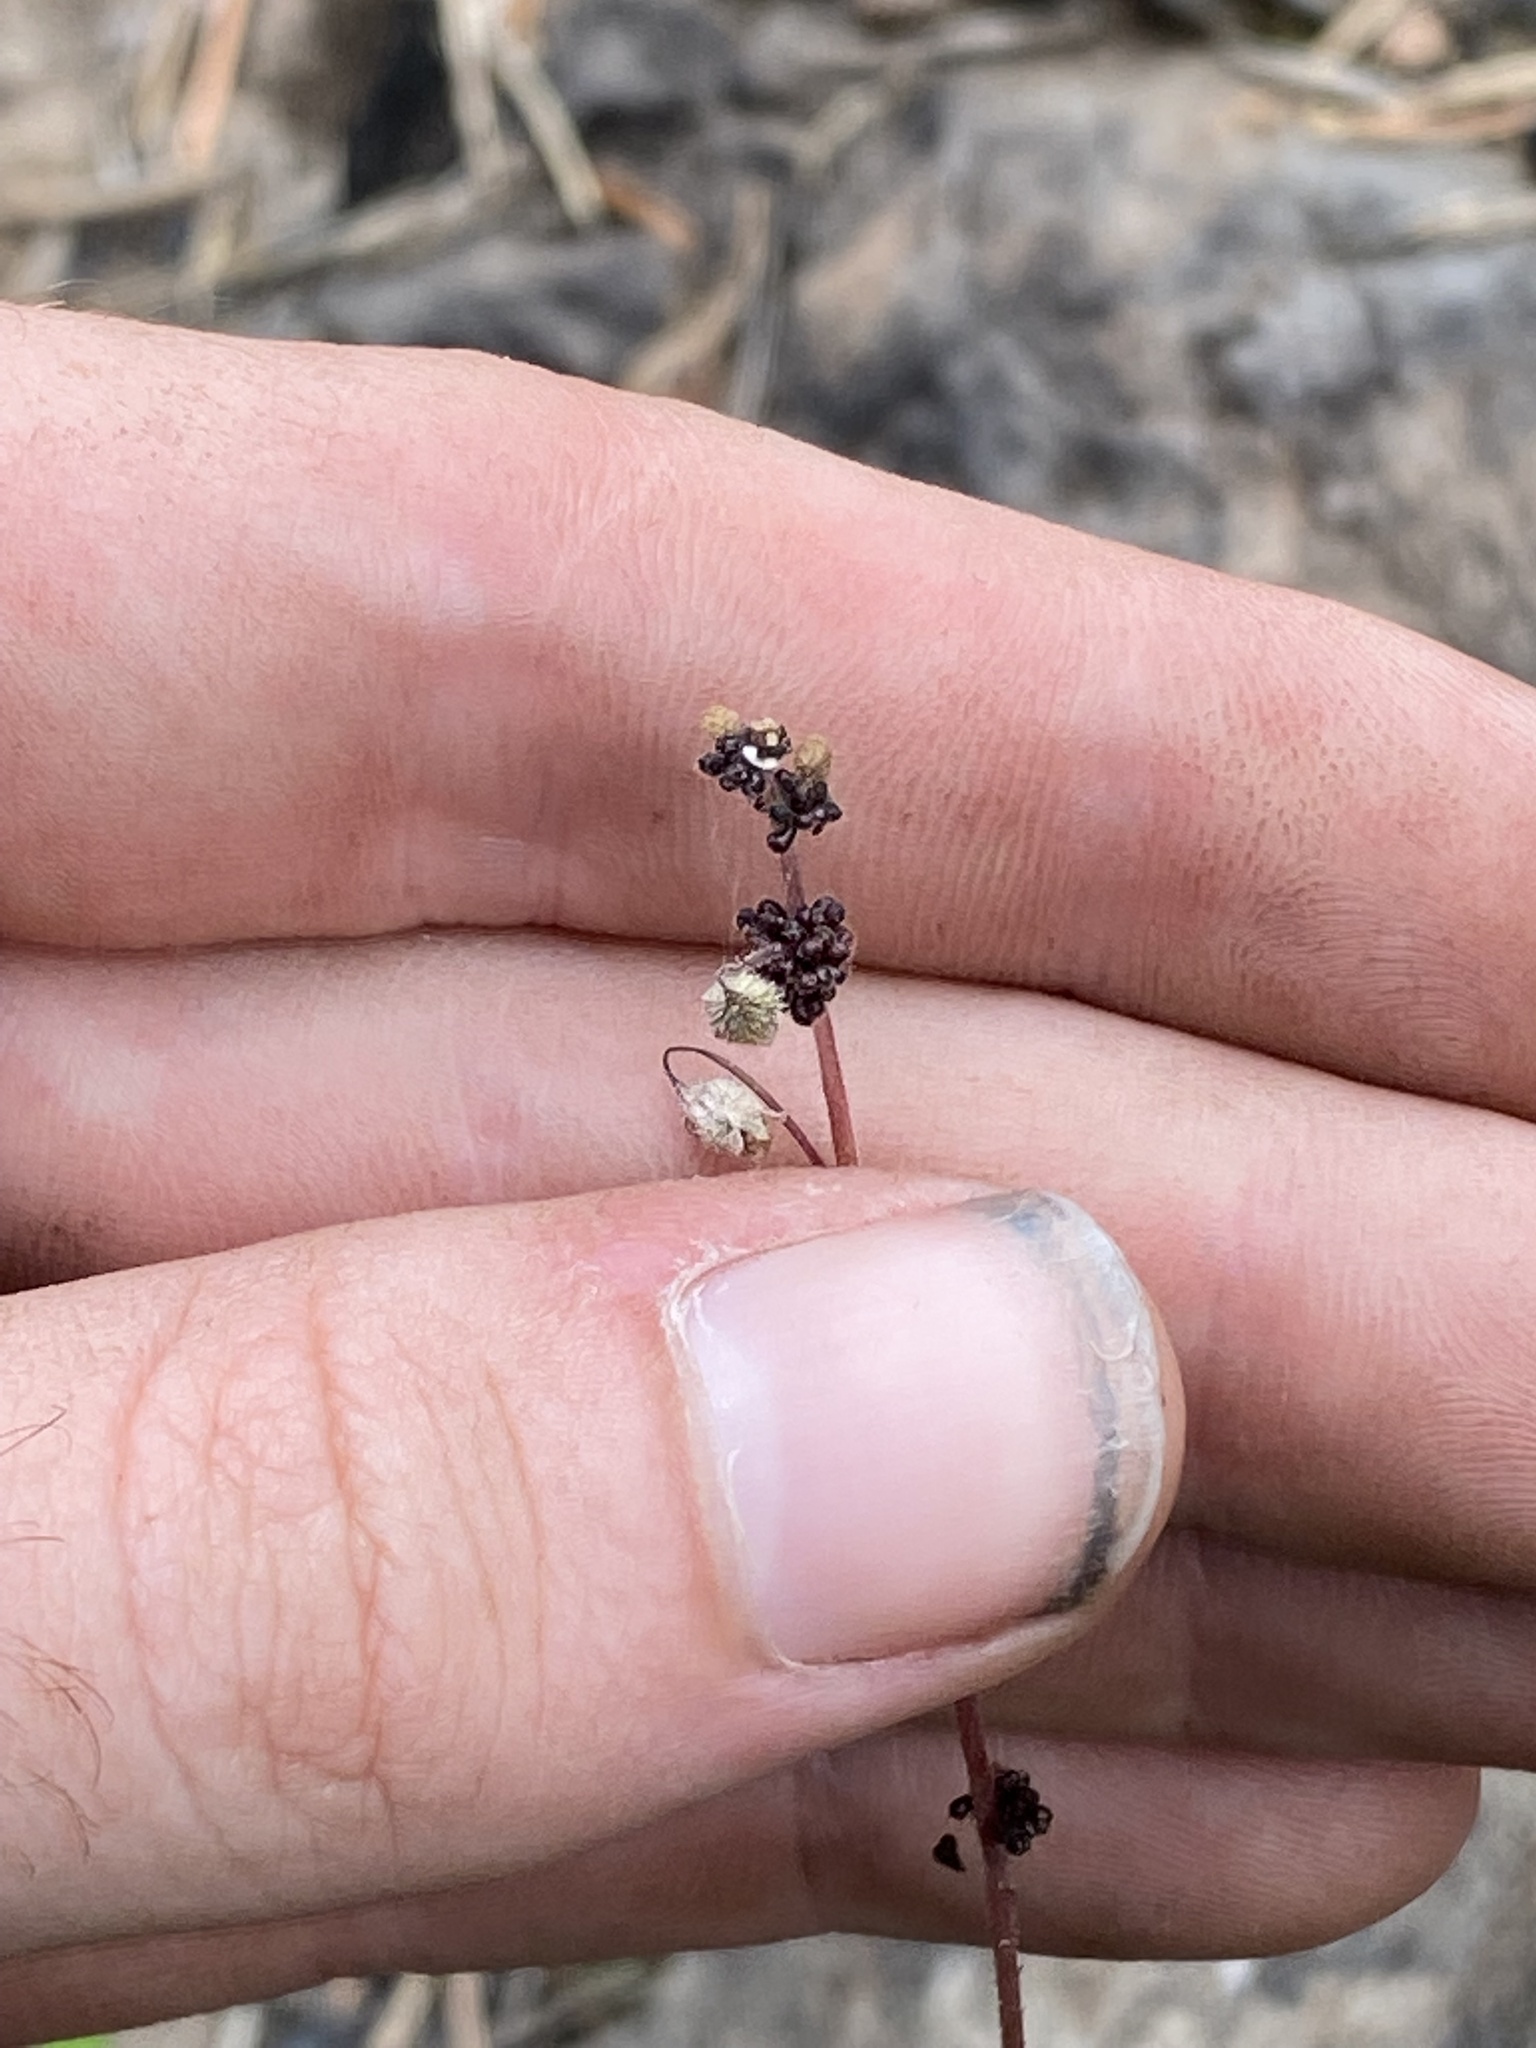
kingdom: Plantae
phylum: Tracheophyta
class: Magnoliopsida
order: Saxifragales
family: Saxifragaceae
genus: Lithophragma
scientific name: Lithophragma glabrum
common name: Bulbous prairie-star
